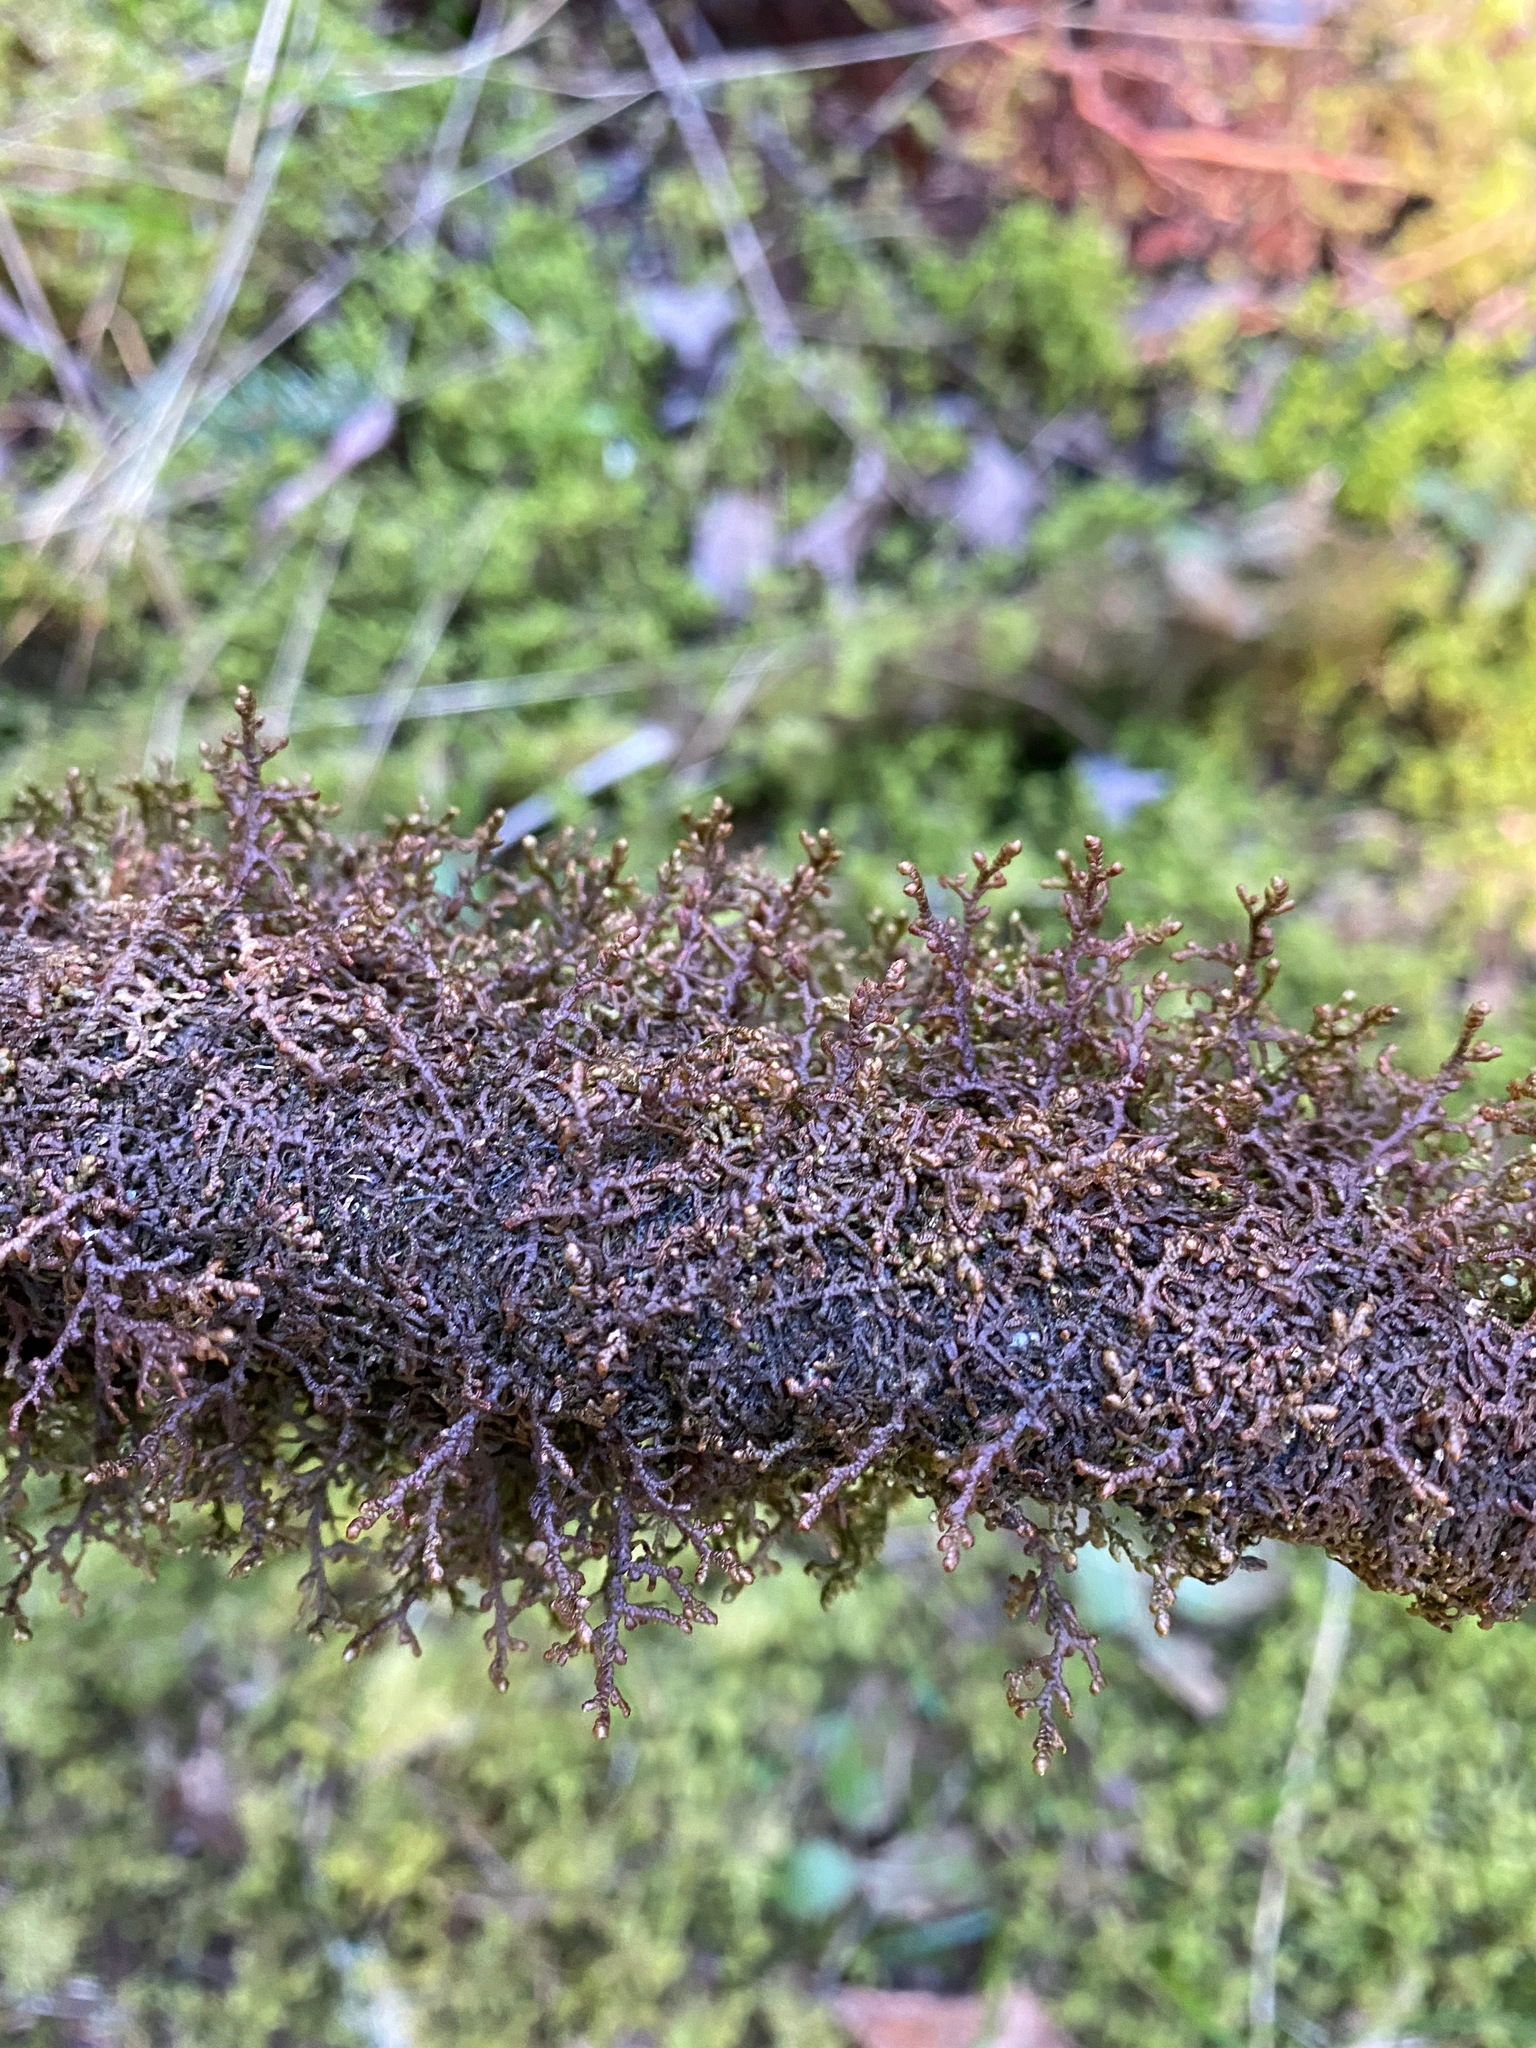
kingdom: Plantae
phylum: Marchantiophyta
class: Jungermanniopsida
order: Porellales
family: Frullaniaceae
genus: Frullania
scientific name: Frullania nisquallensis
